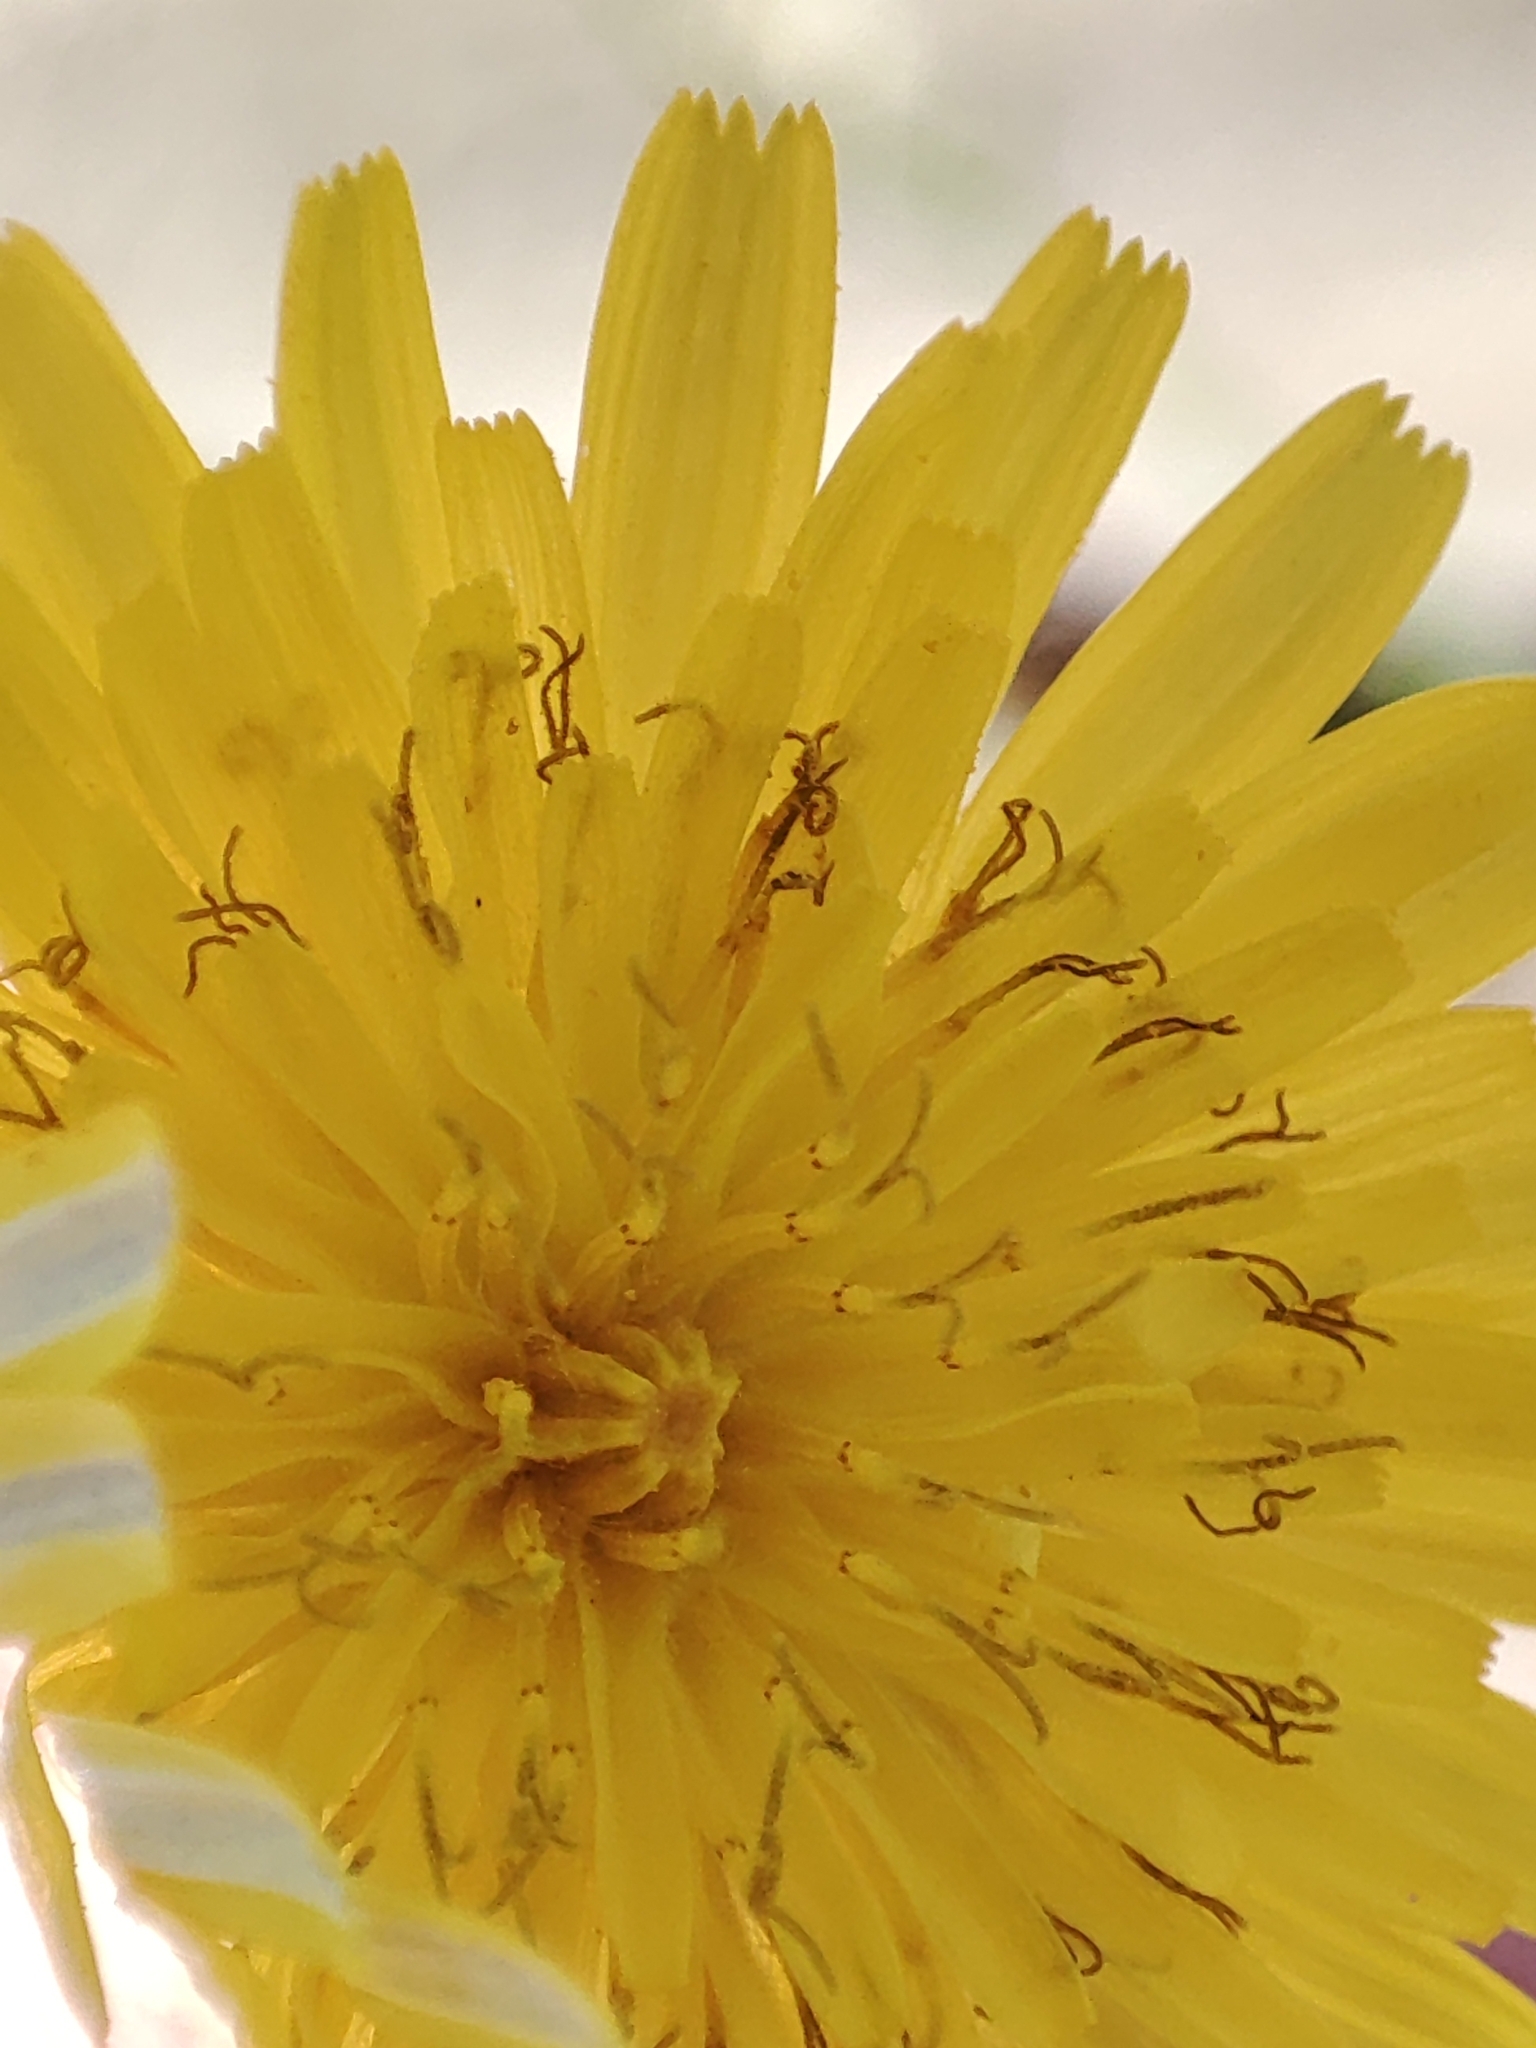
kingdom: Plantae
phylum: Tracheophyta
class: Magnoliopsida
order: Asterales
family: Asteraceae
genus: Sonchus
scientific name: Sonchus tenerrimus
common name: Clammy sowthistle
